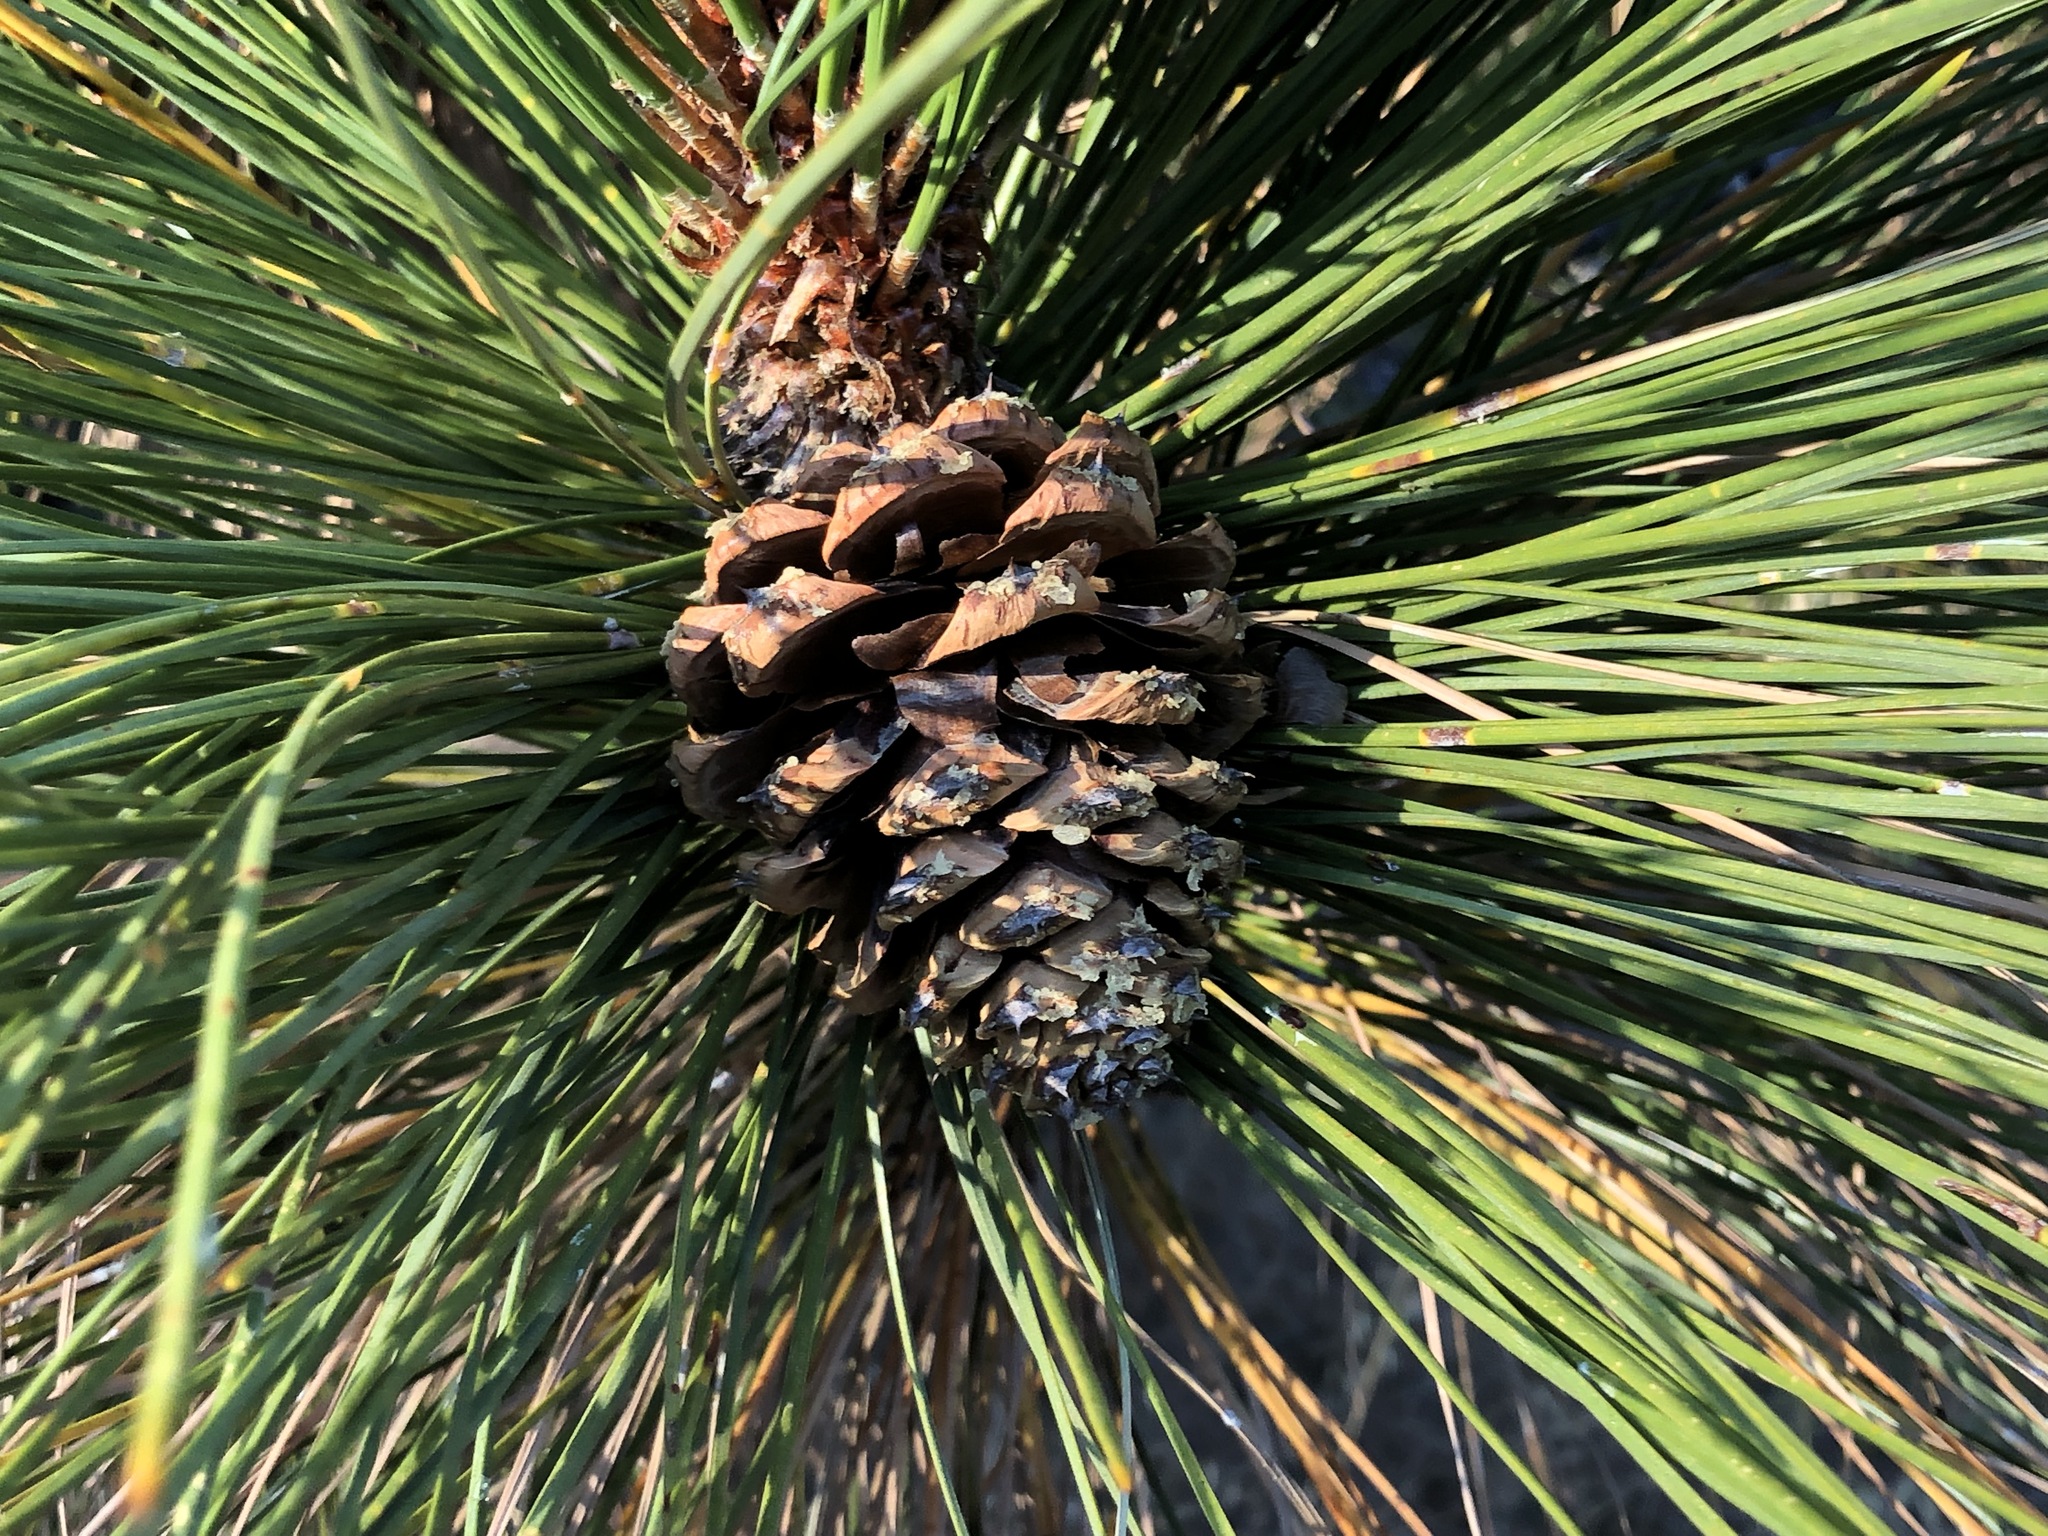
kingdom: Plantae
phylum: Tracheophyta
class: Pinopsida
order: Pinales
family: Pinaceae
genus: Pinus
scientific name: Pinus ponderosa
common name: Western yellow-pine
